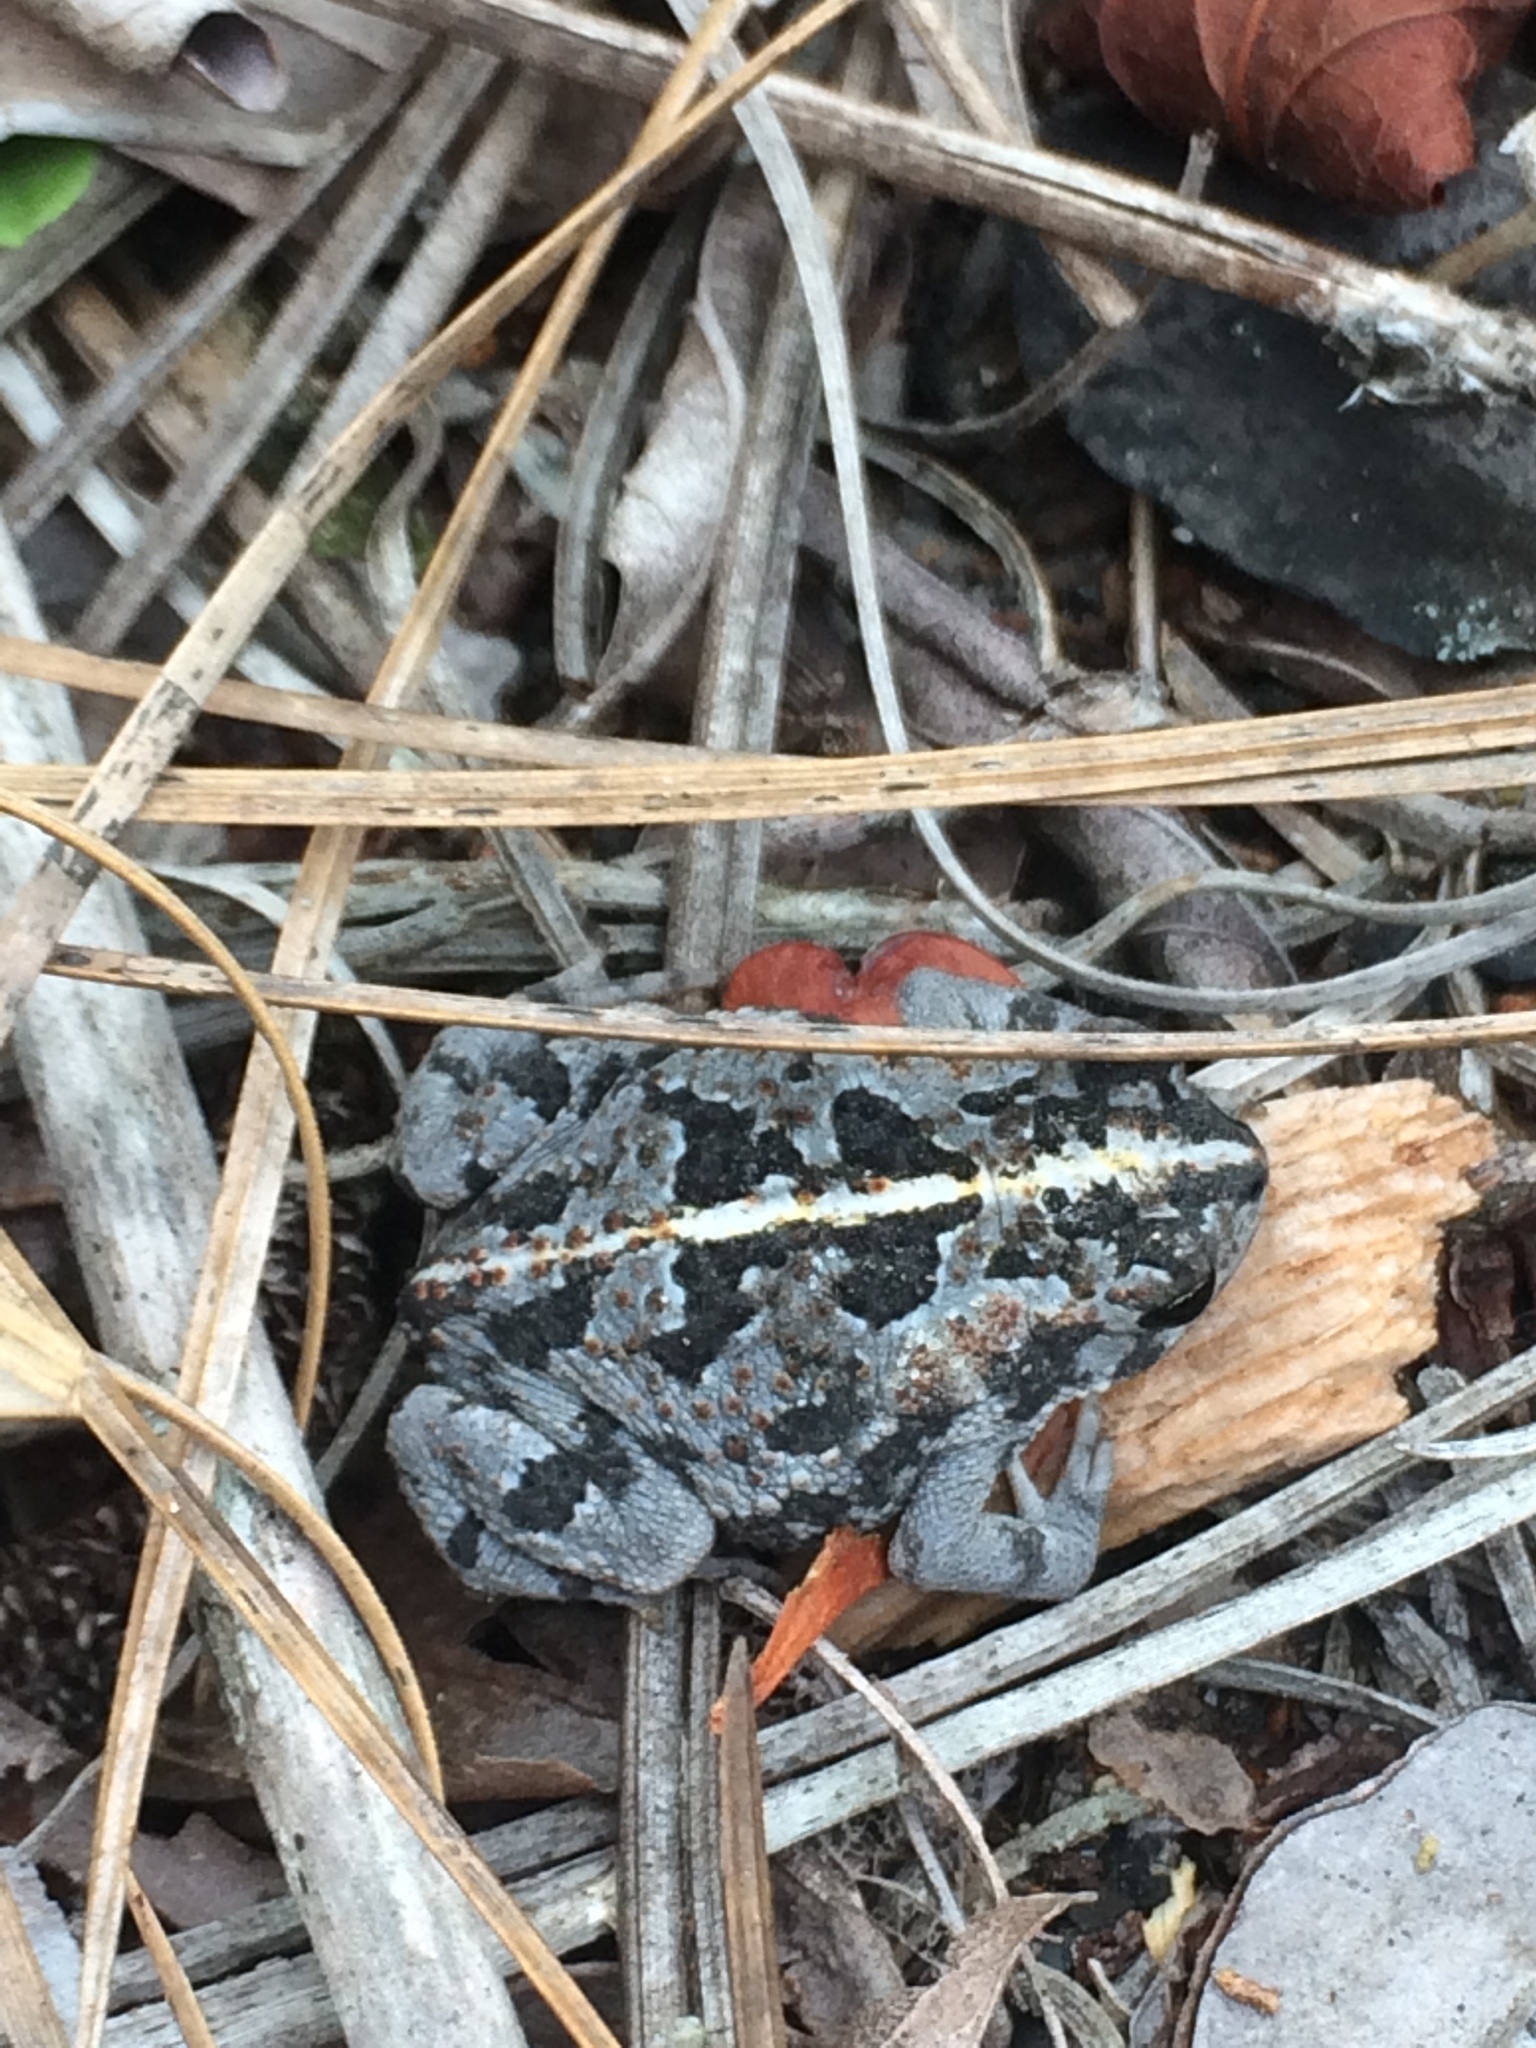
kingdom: Animalia
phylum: Chordata
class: Amphibia
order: Anura
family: Bufonidae
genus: Anaxyrus
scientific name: Anaxyrus quercicus
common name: Oak toad
